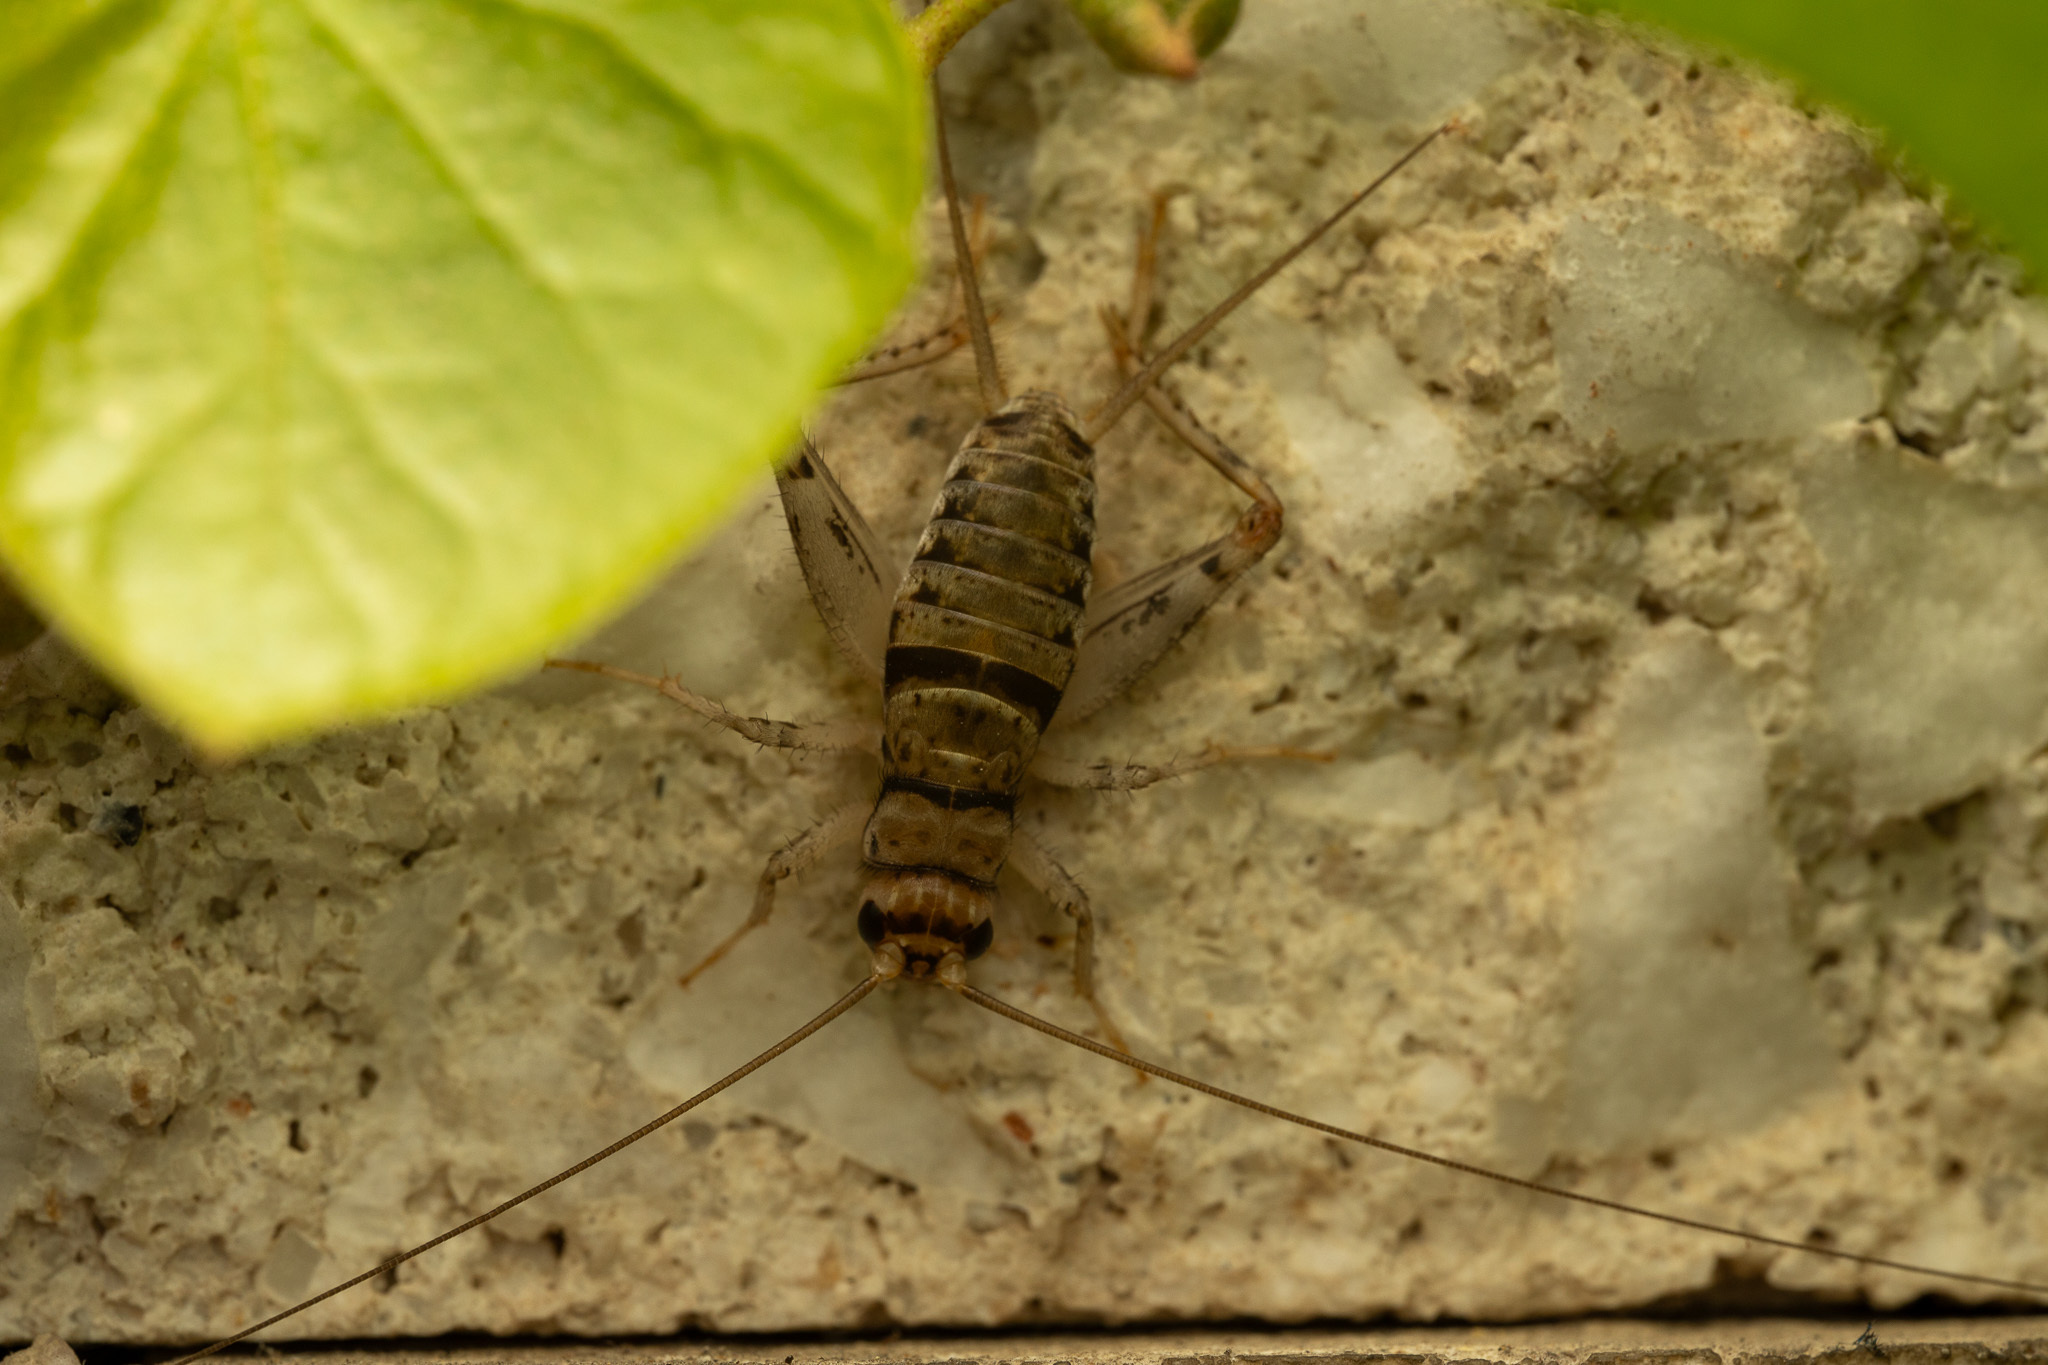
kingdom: Animalia
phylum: Arthropoda
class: Insecta
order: Orthoptera
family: Gryllidae
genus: Gryllodes
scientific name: Gryllodes sigillatus
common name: Tropical house cricket
